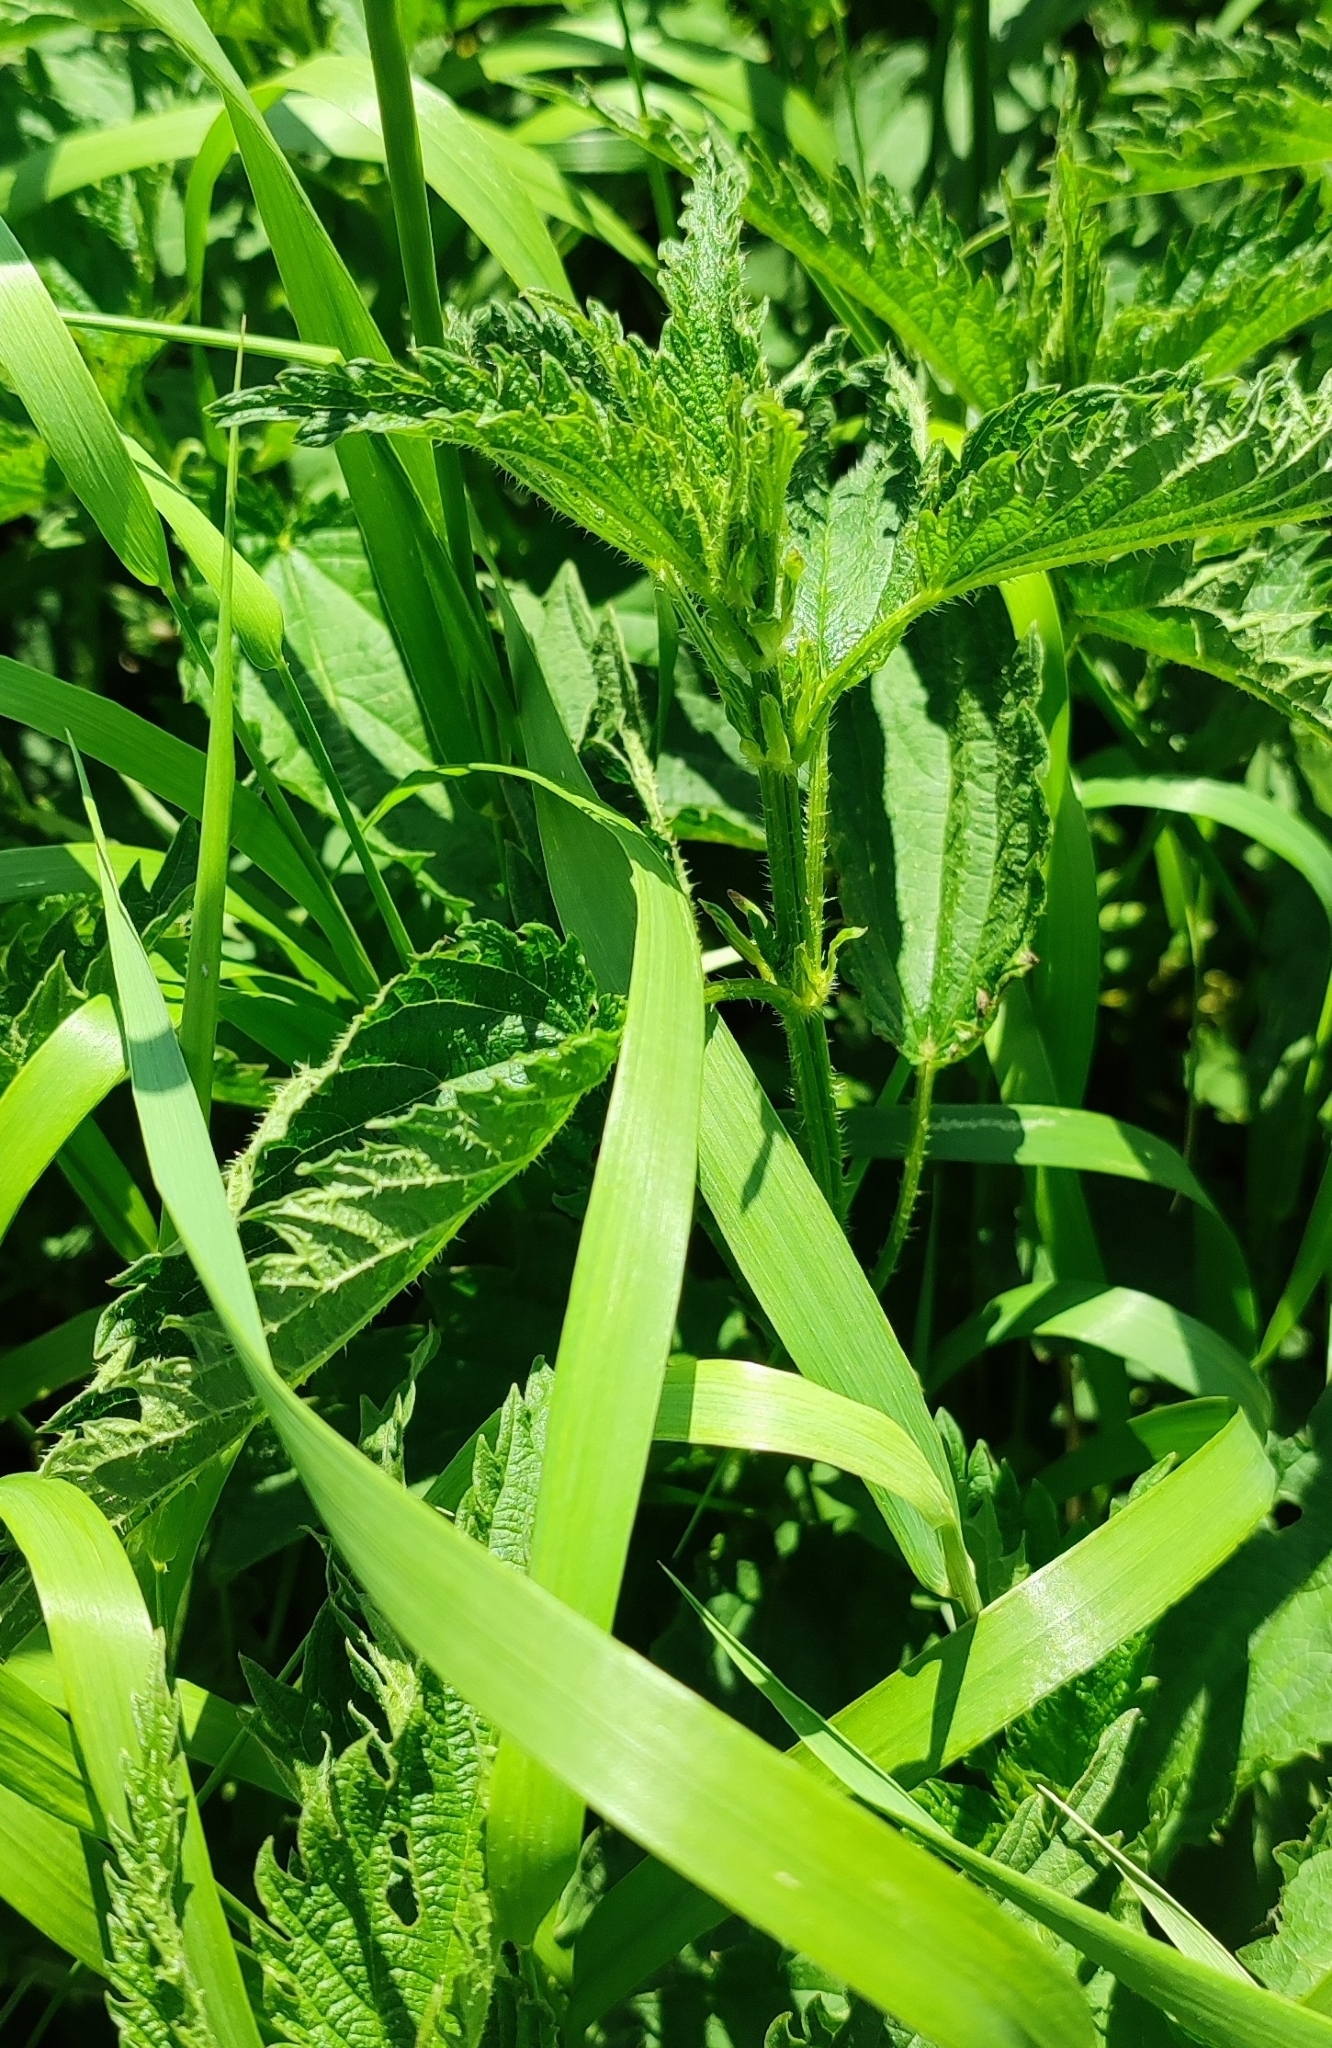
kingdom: Plantae
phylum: Tracheophyta
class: Magnoliopsida
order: Rosales
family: Urticaceae
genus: Urtica
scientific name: Urtica dioica
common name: Common nettle
